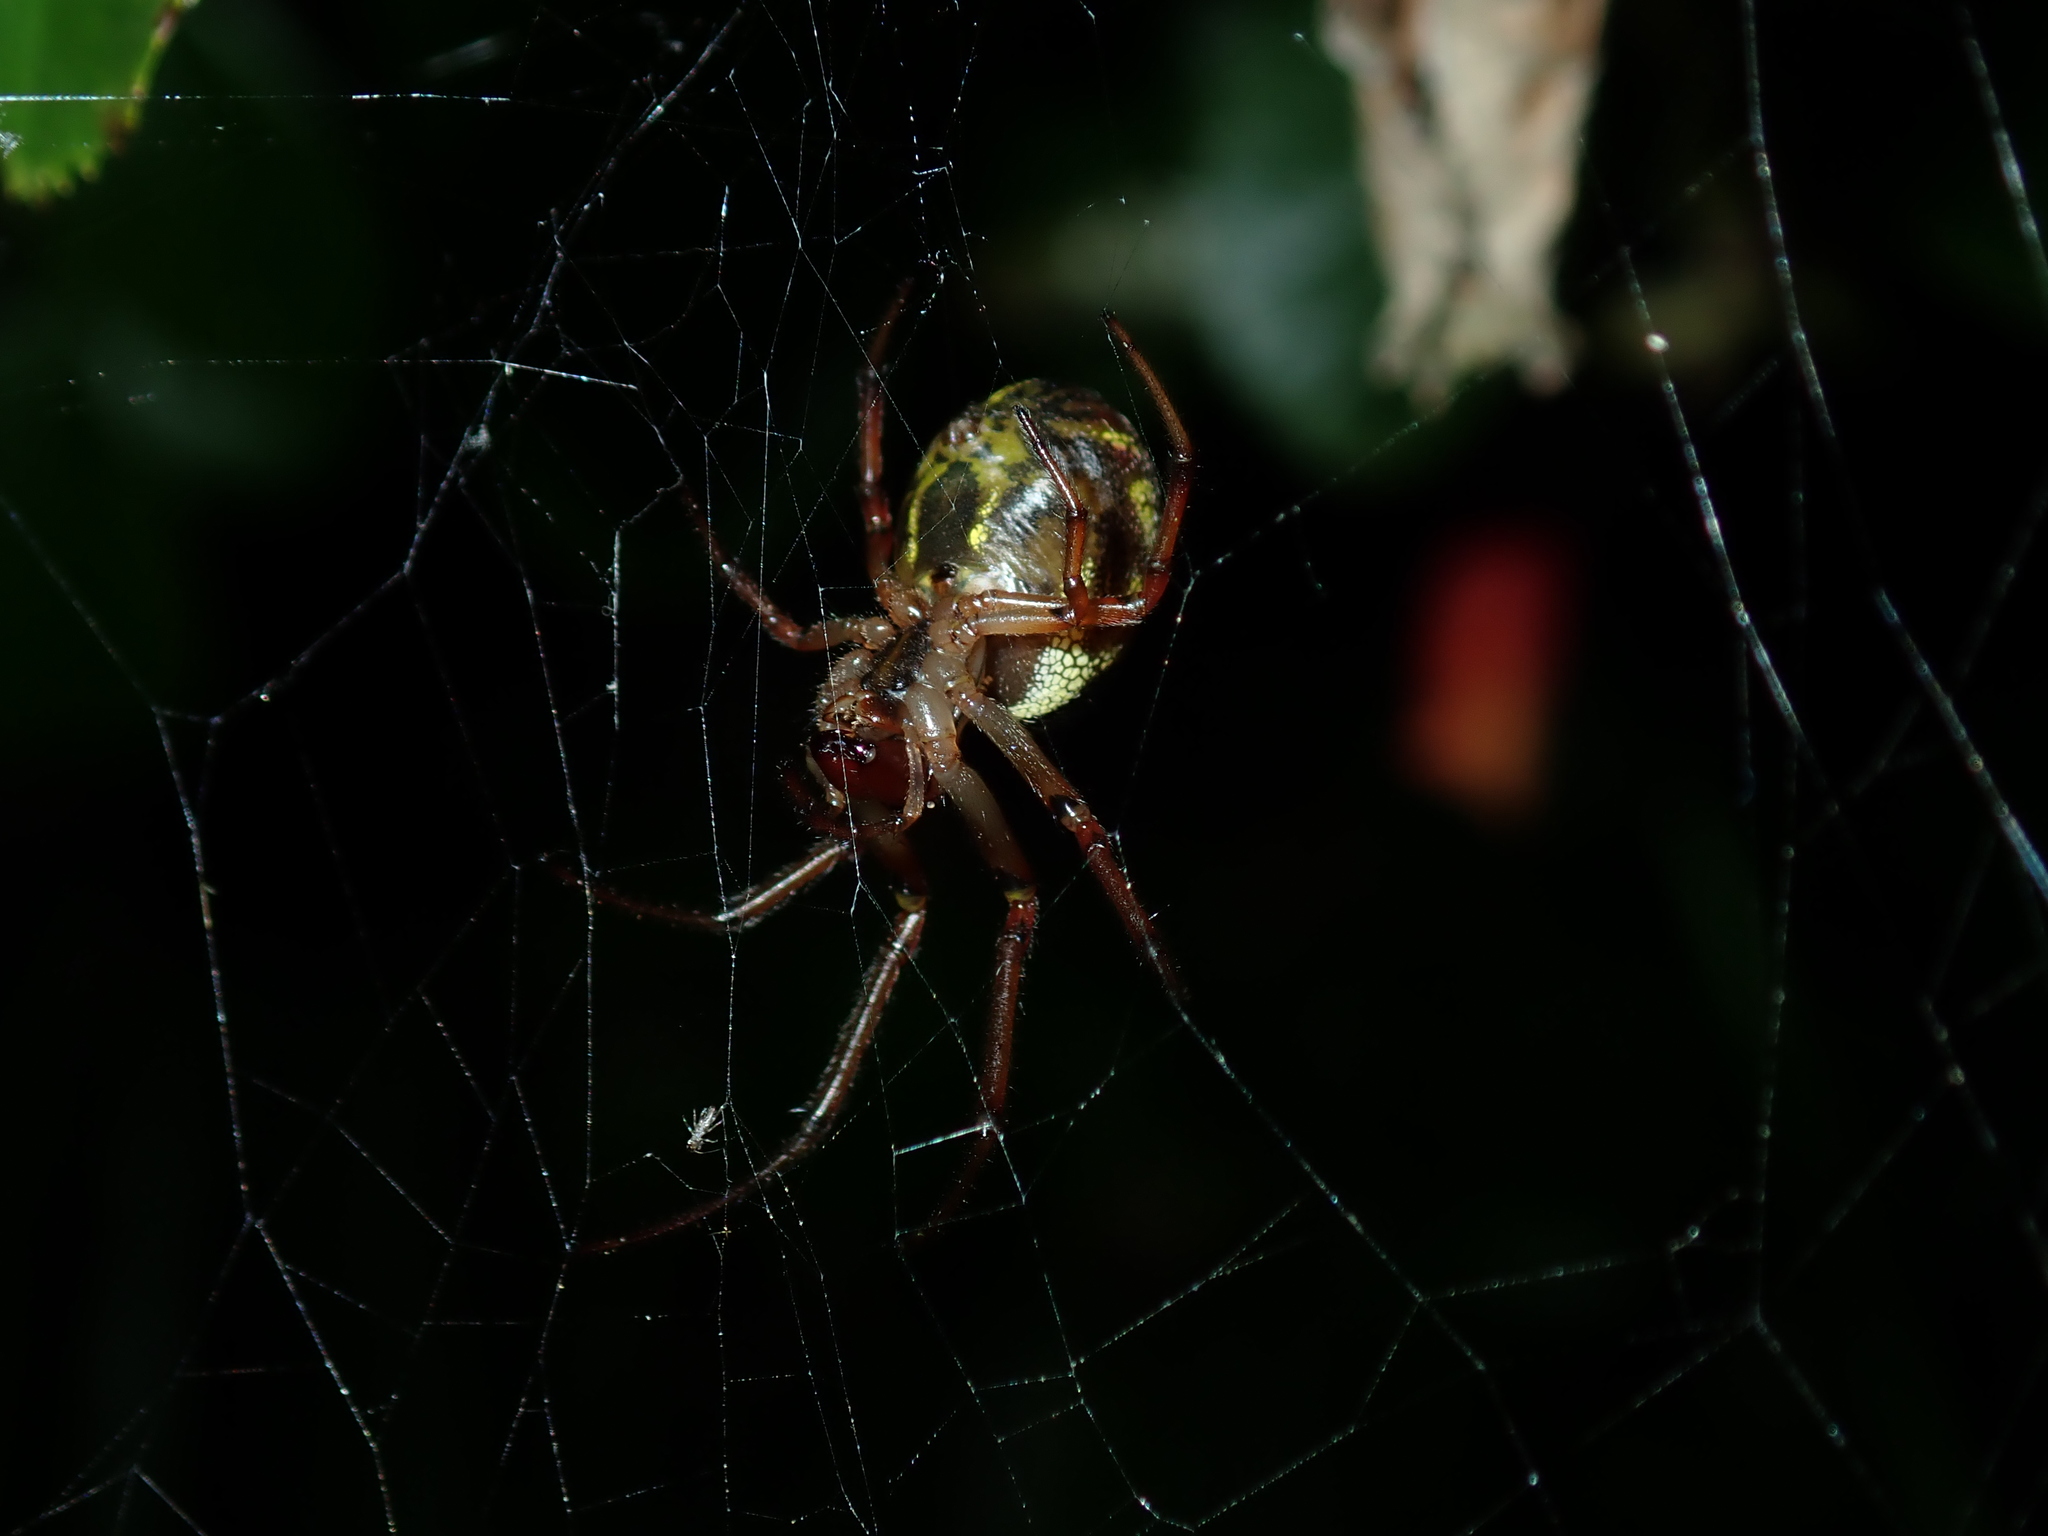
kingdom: Animalia
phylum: Arthropoda
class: Arachnida
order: Araneae
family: Araneidae
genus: Phonognatha
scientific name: Phonognatha graeffei
